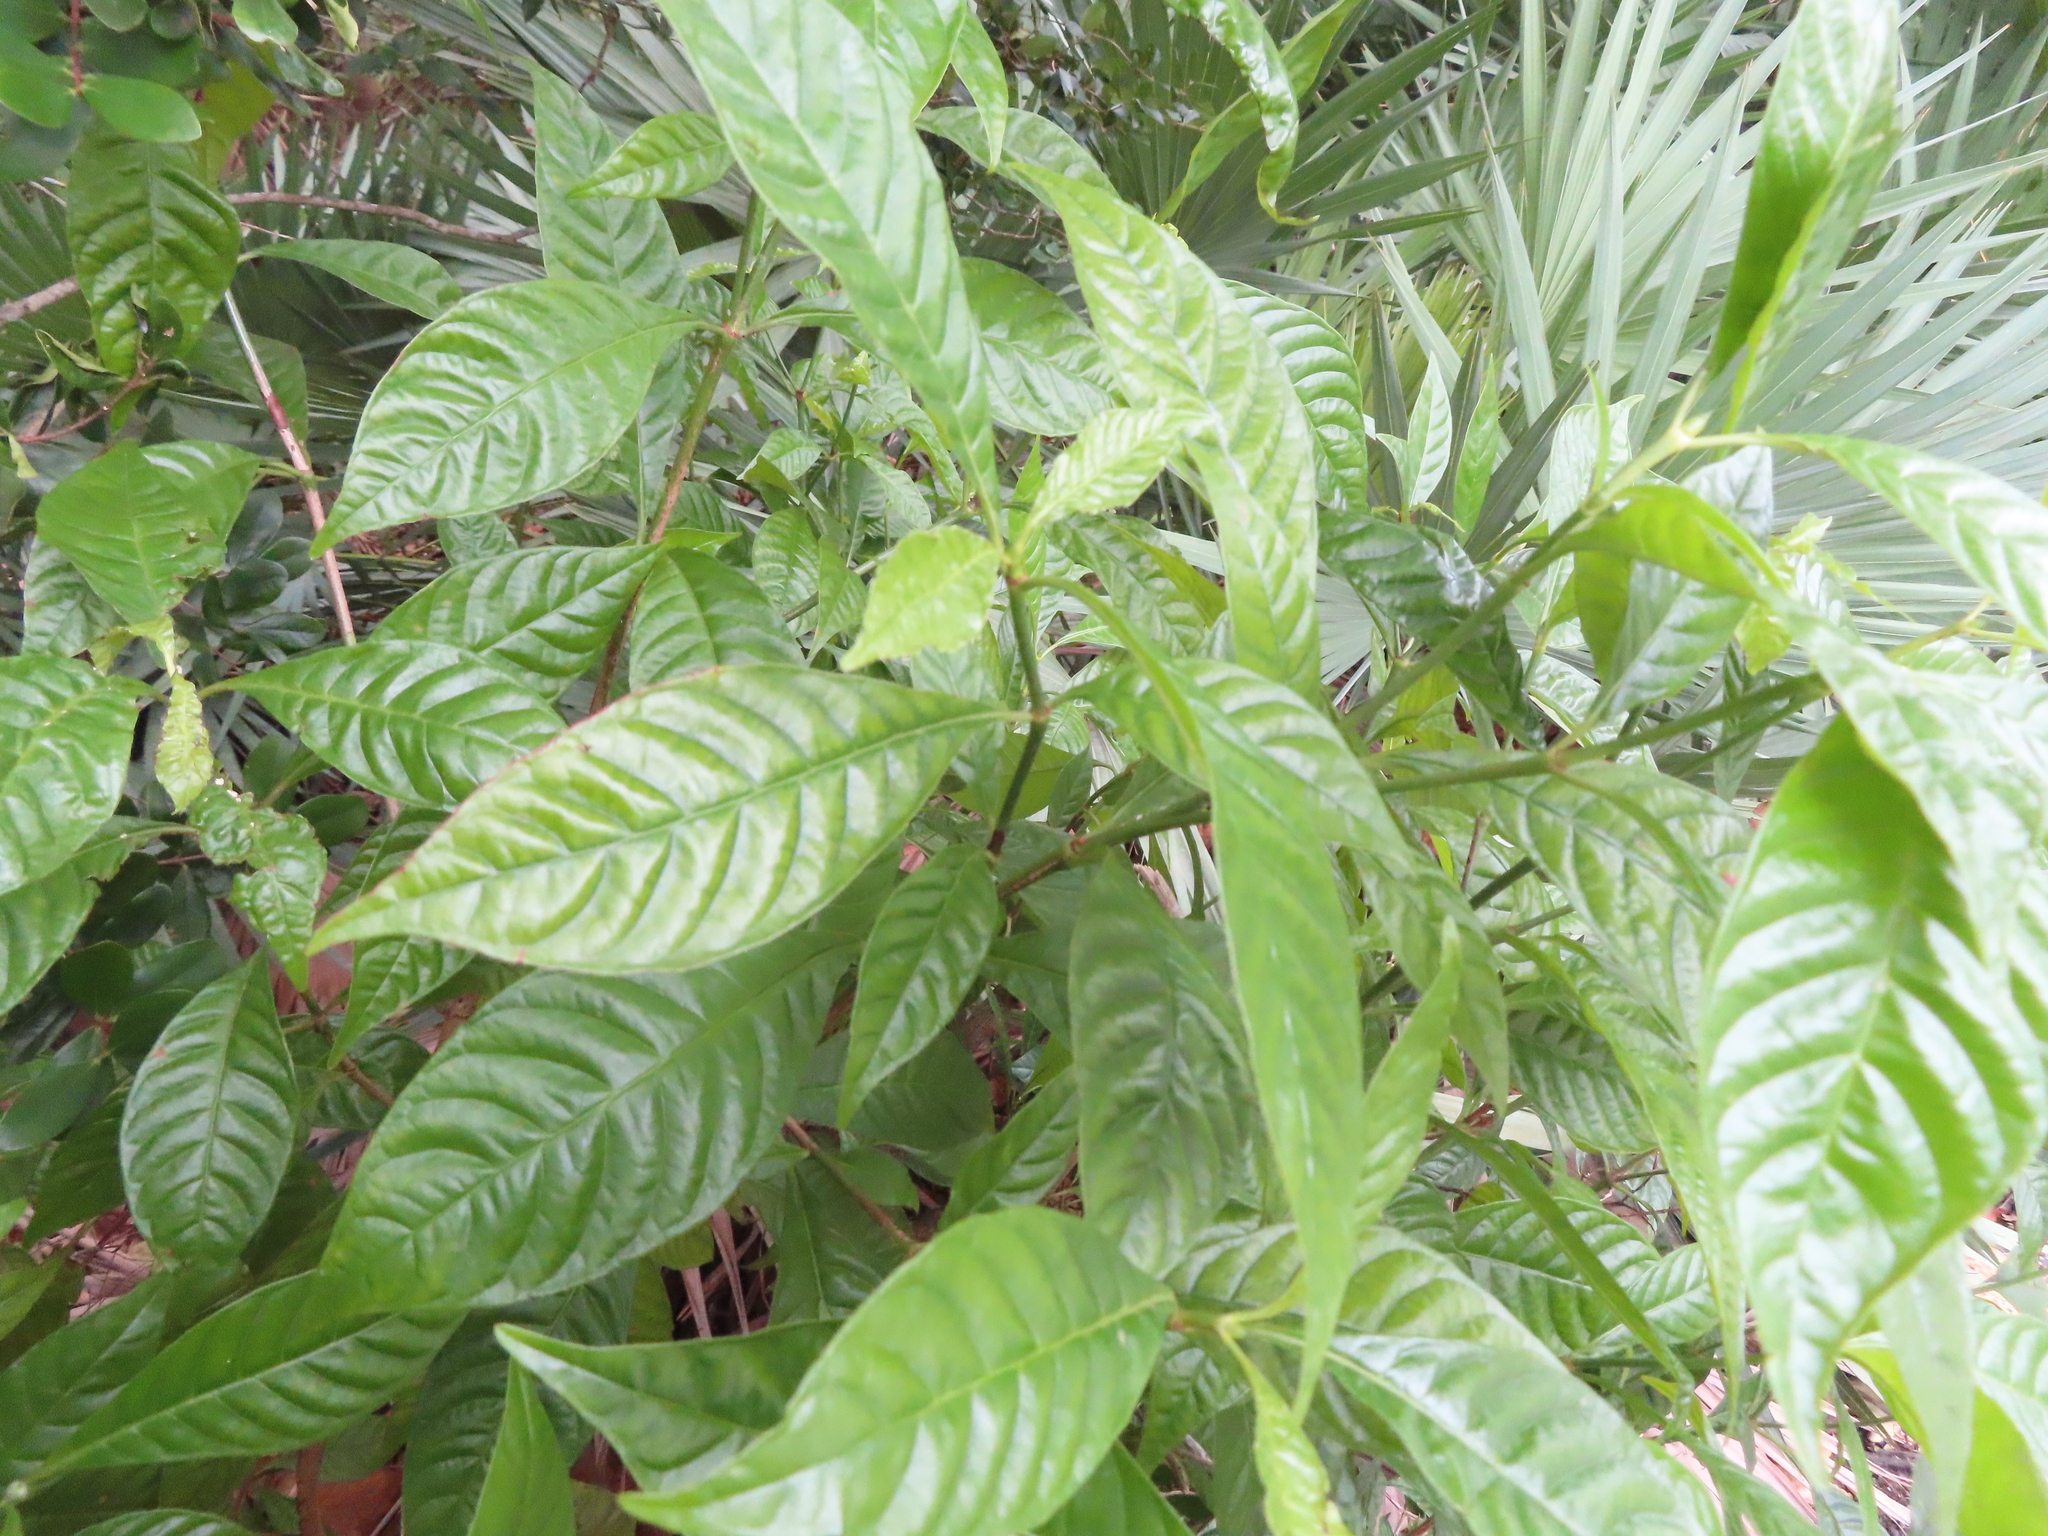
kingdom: Plantae
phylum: Tracheophyta
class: Magnoliopsida
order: Gentianales
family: Rubiaceae
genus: Psychotria
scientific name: Psychotria nervosa
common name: Bastard cankerberry
